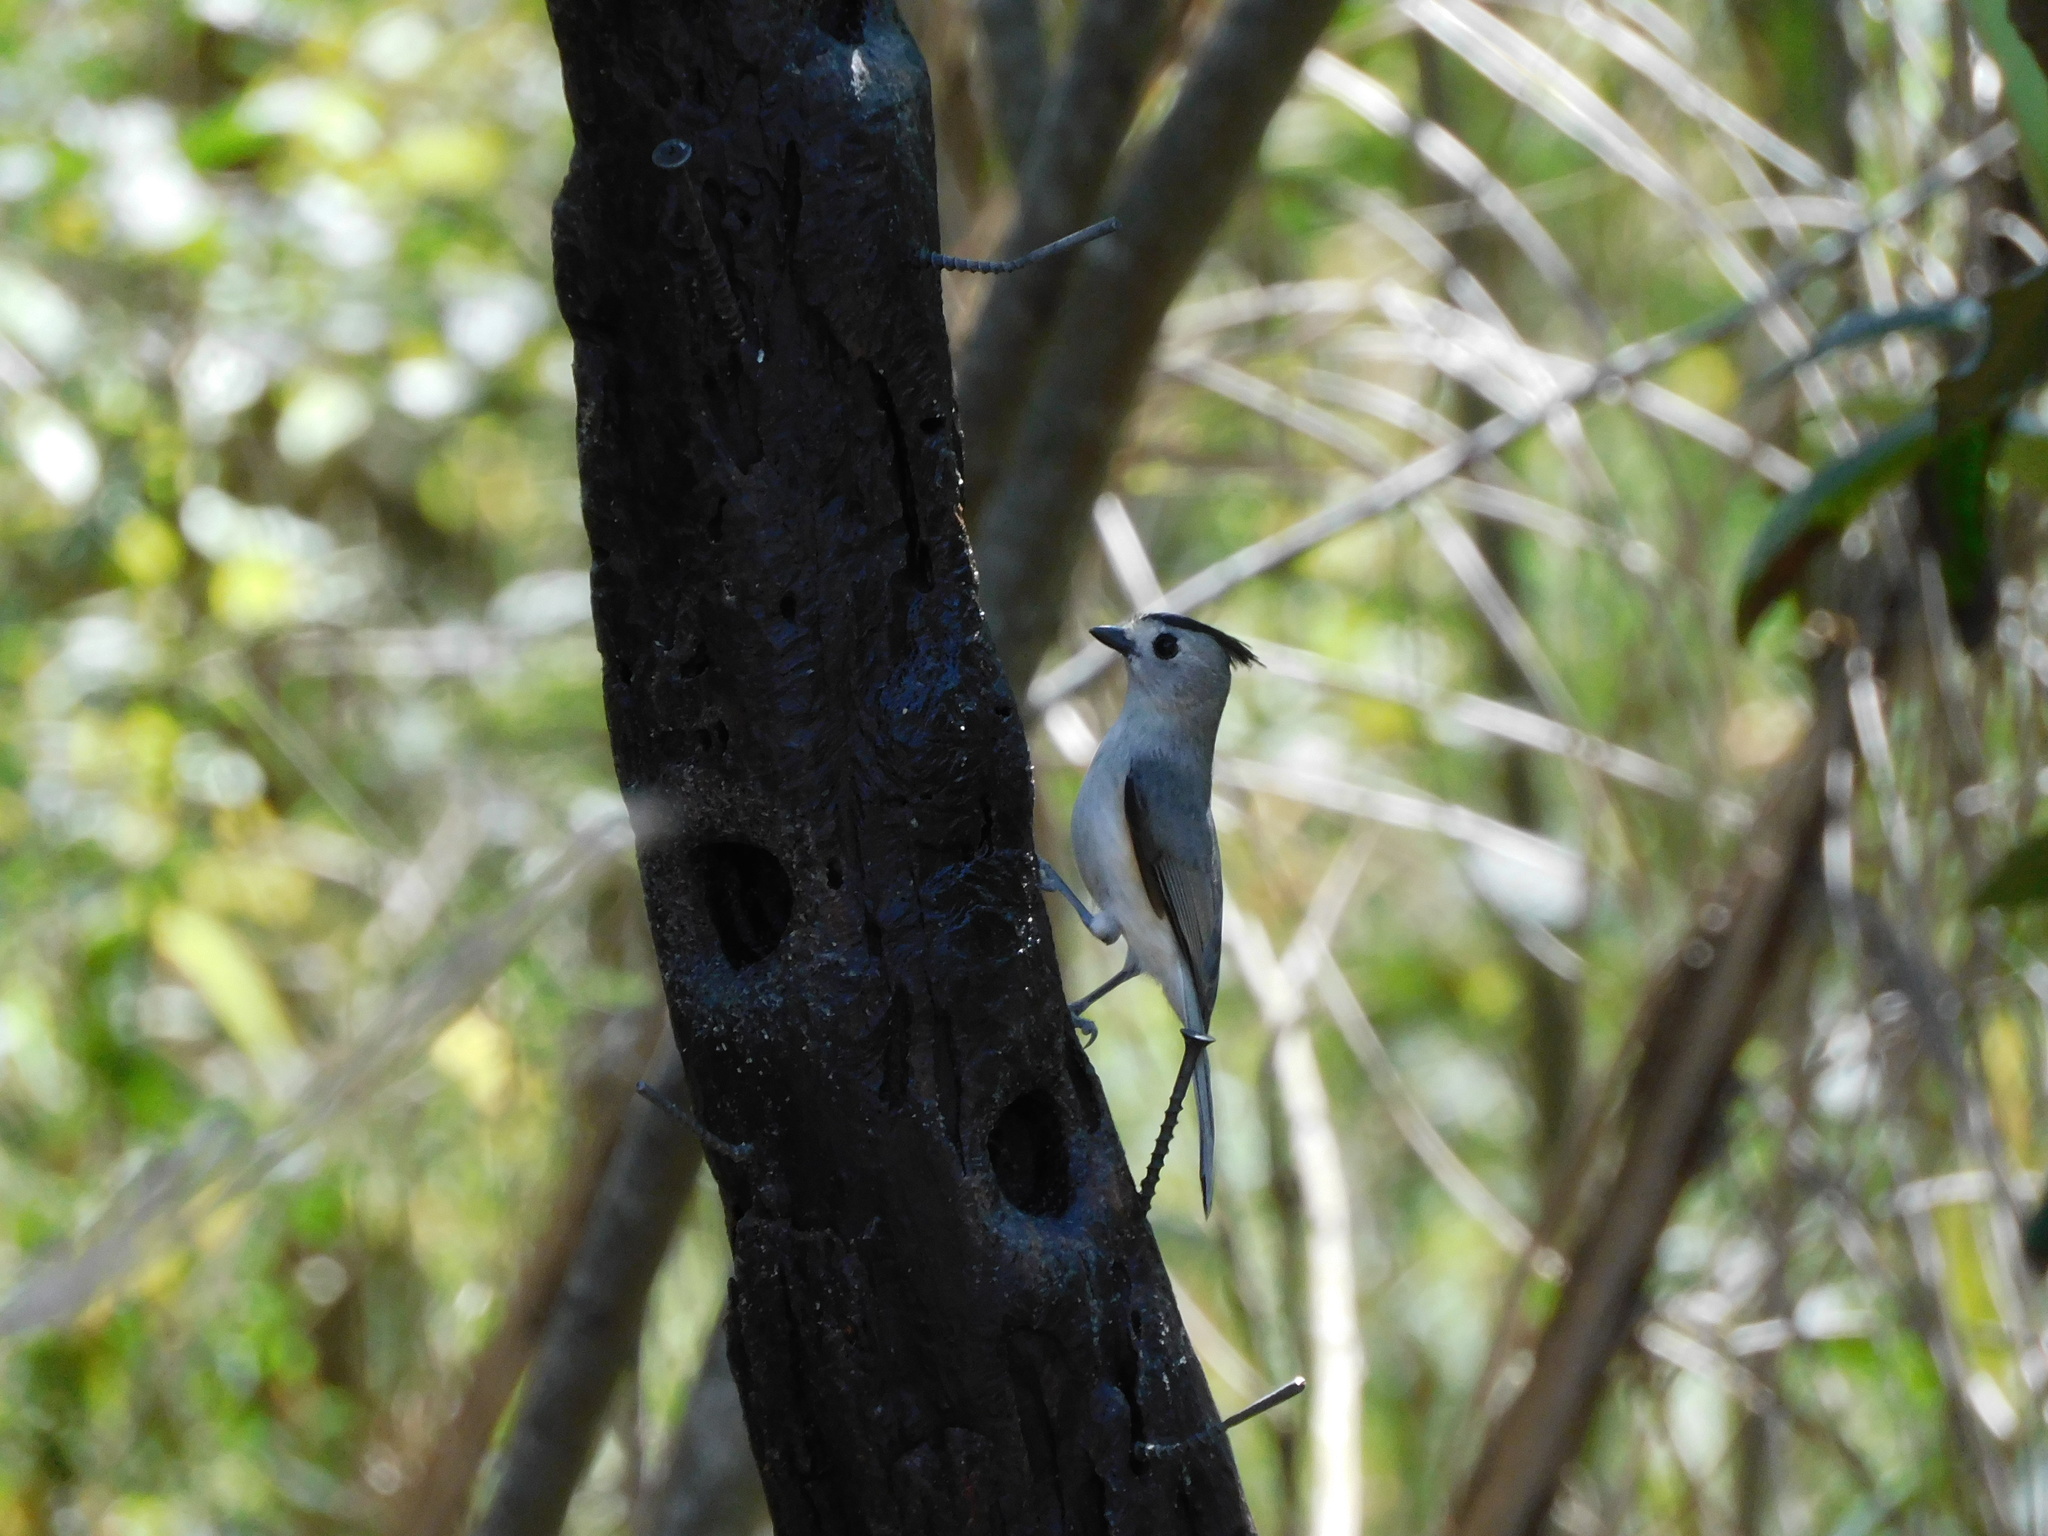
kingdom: Animalia
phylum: Chordata
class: Aves
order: Passeriformes
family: Paridae
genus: Baeolophus
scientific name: Baeolophus atricristatus
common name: Black-crested titmouse
